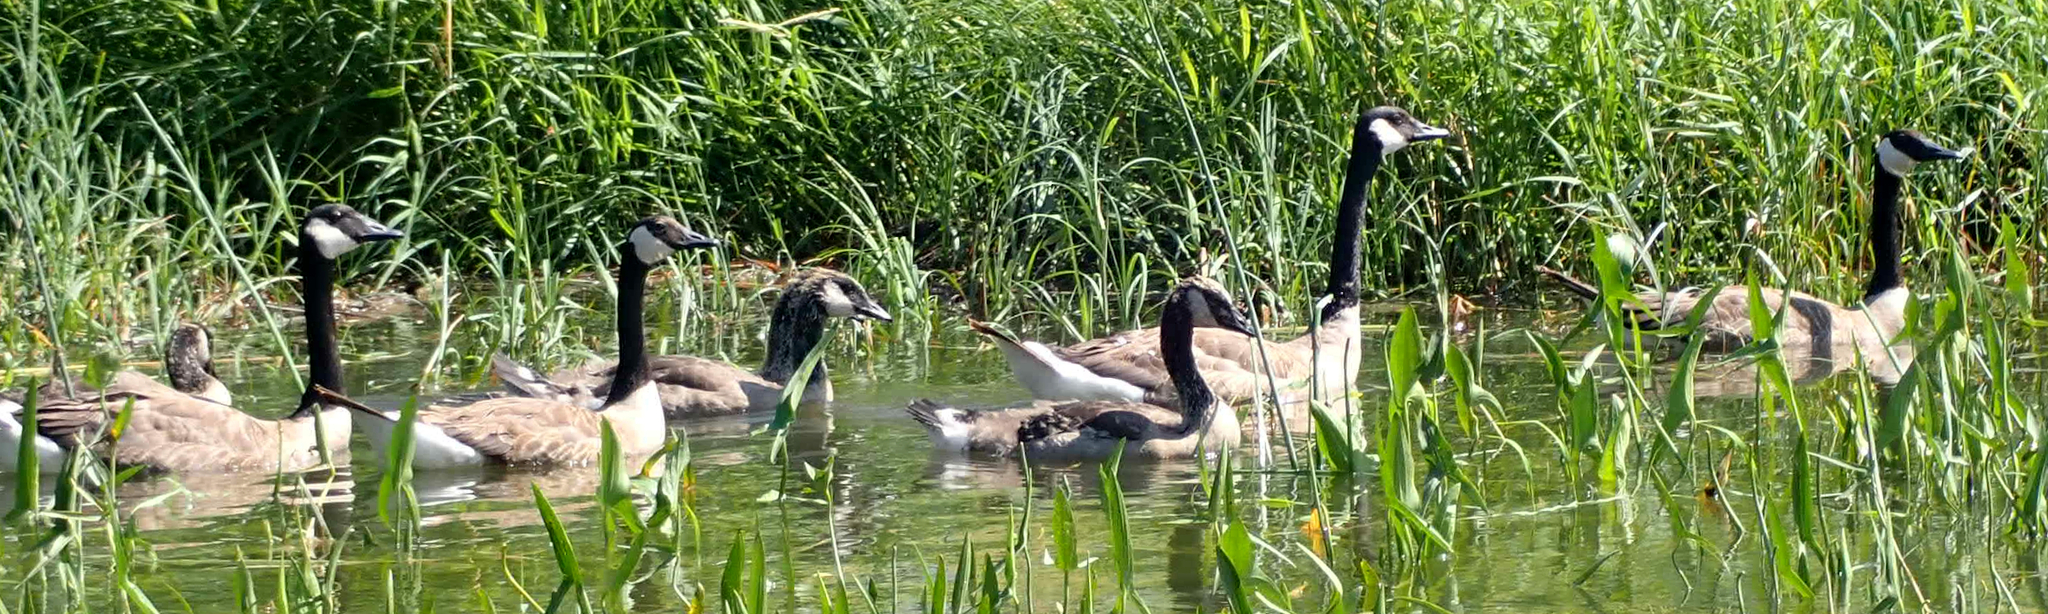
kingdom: Animalia
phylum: Chordata
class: Aves
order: Anseriformes
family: Anatidae
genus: Branta
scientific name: Branta canadensis
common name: Canada goose
